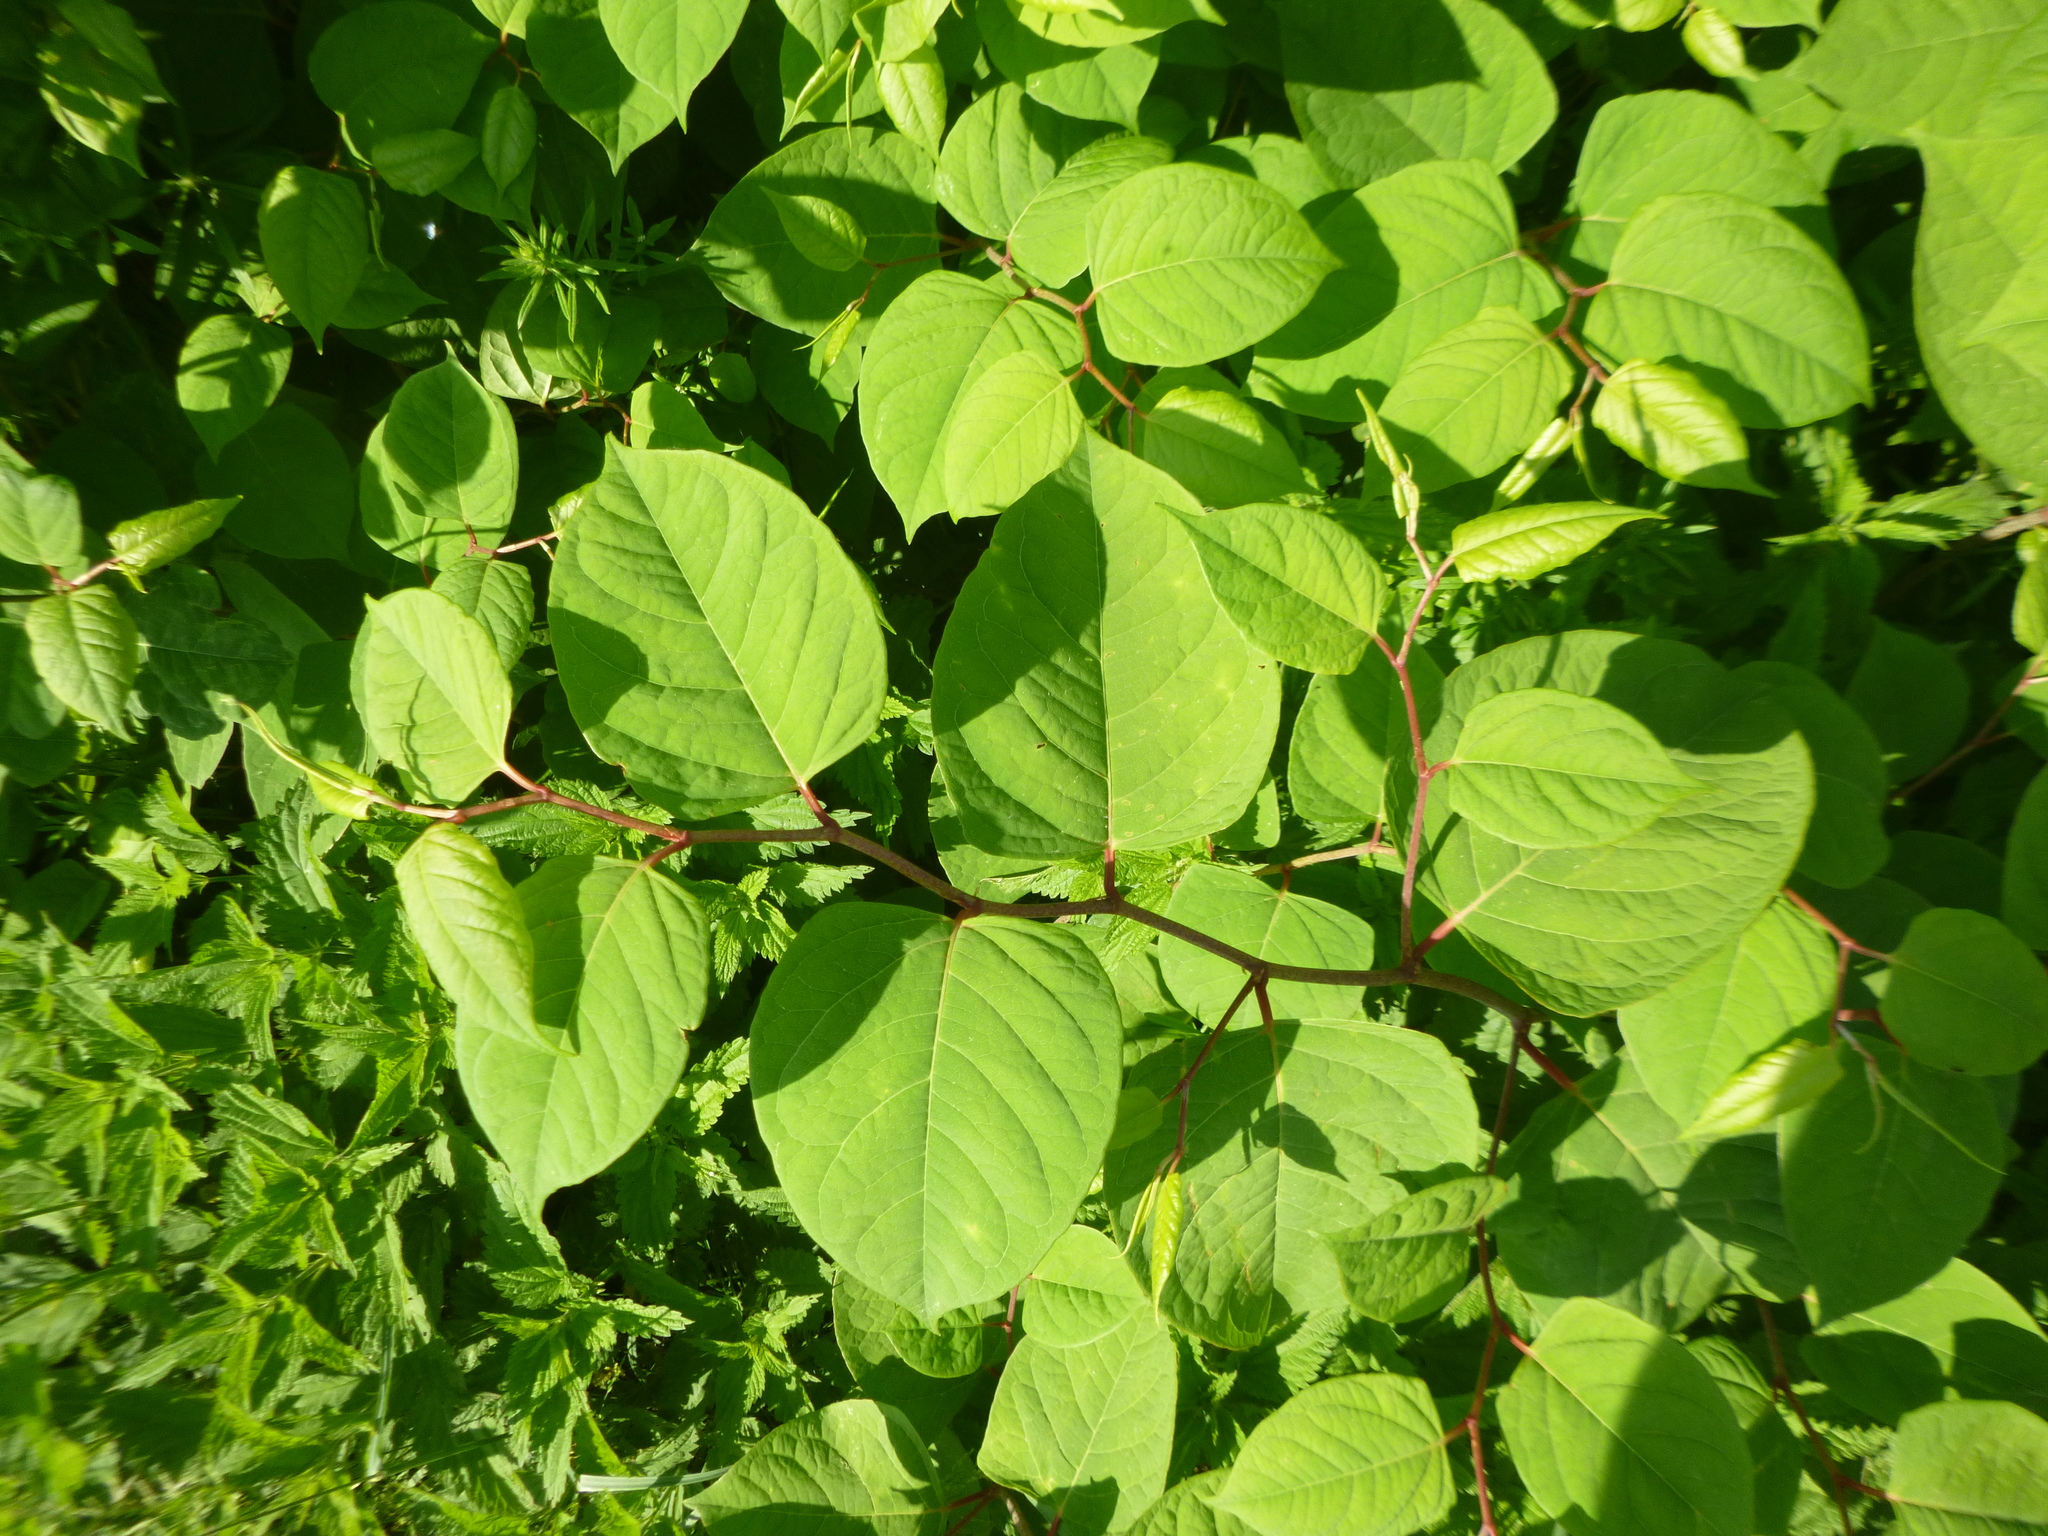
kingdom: Plantae
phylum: Tracheophyta
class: Magnoliopsida
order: Caryophyllales
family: Polygonaceae
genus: Reynoutria
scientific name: Reynoutria japonica
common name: Japanese knotweed
